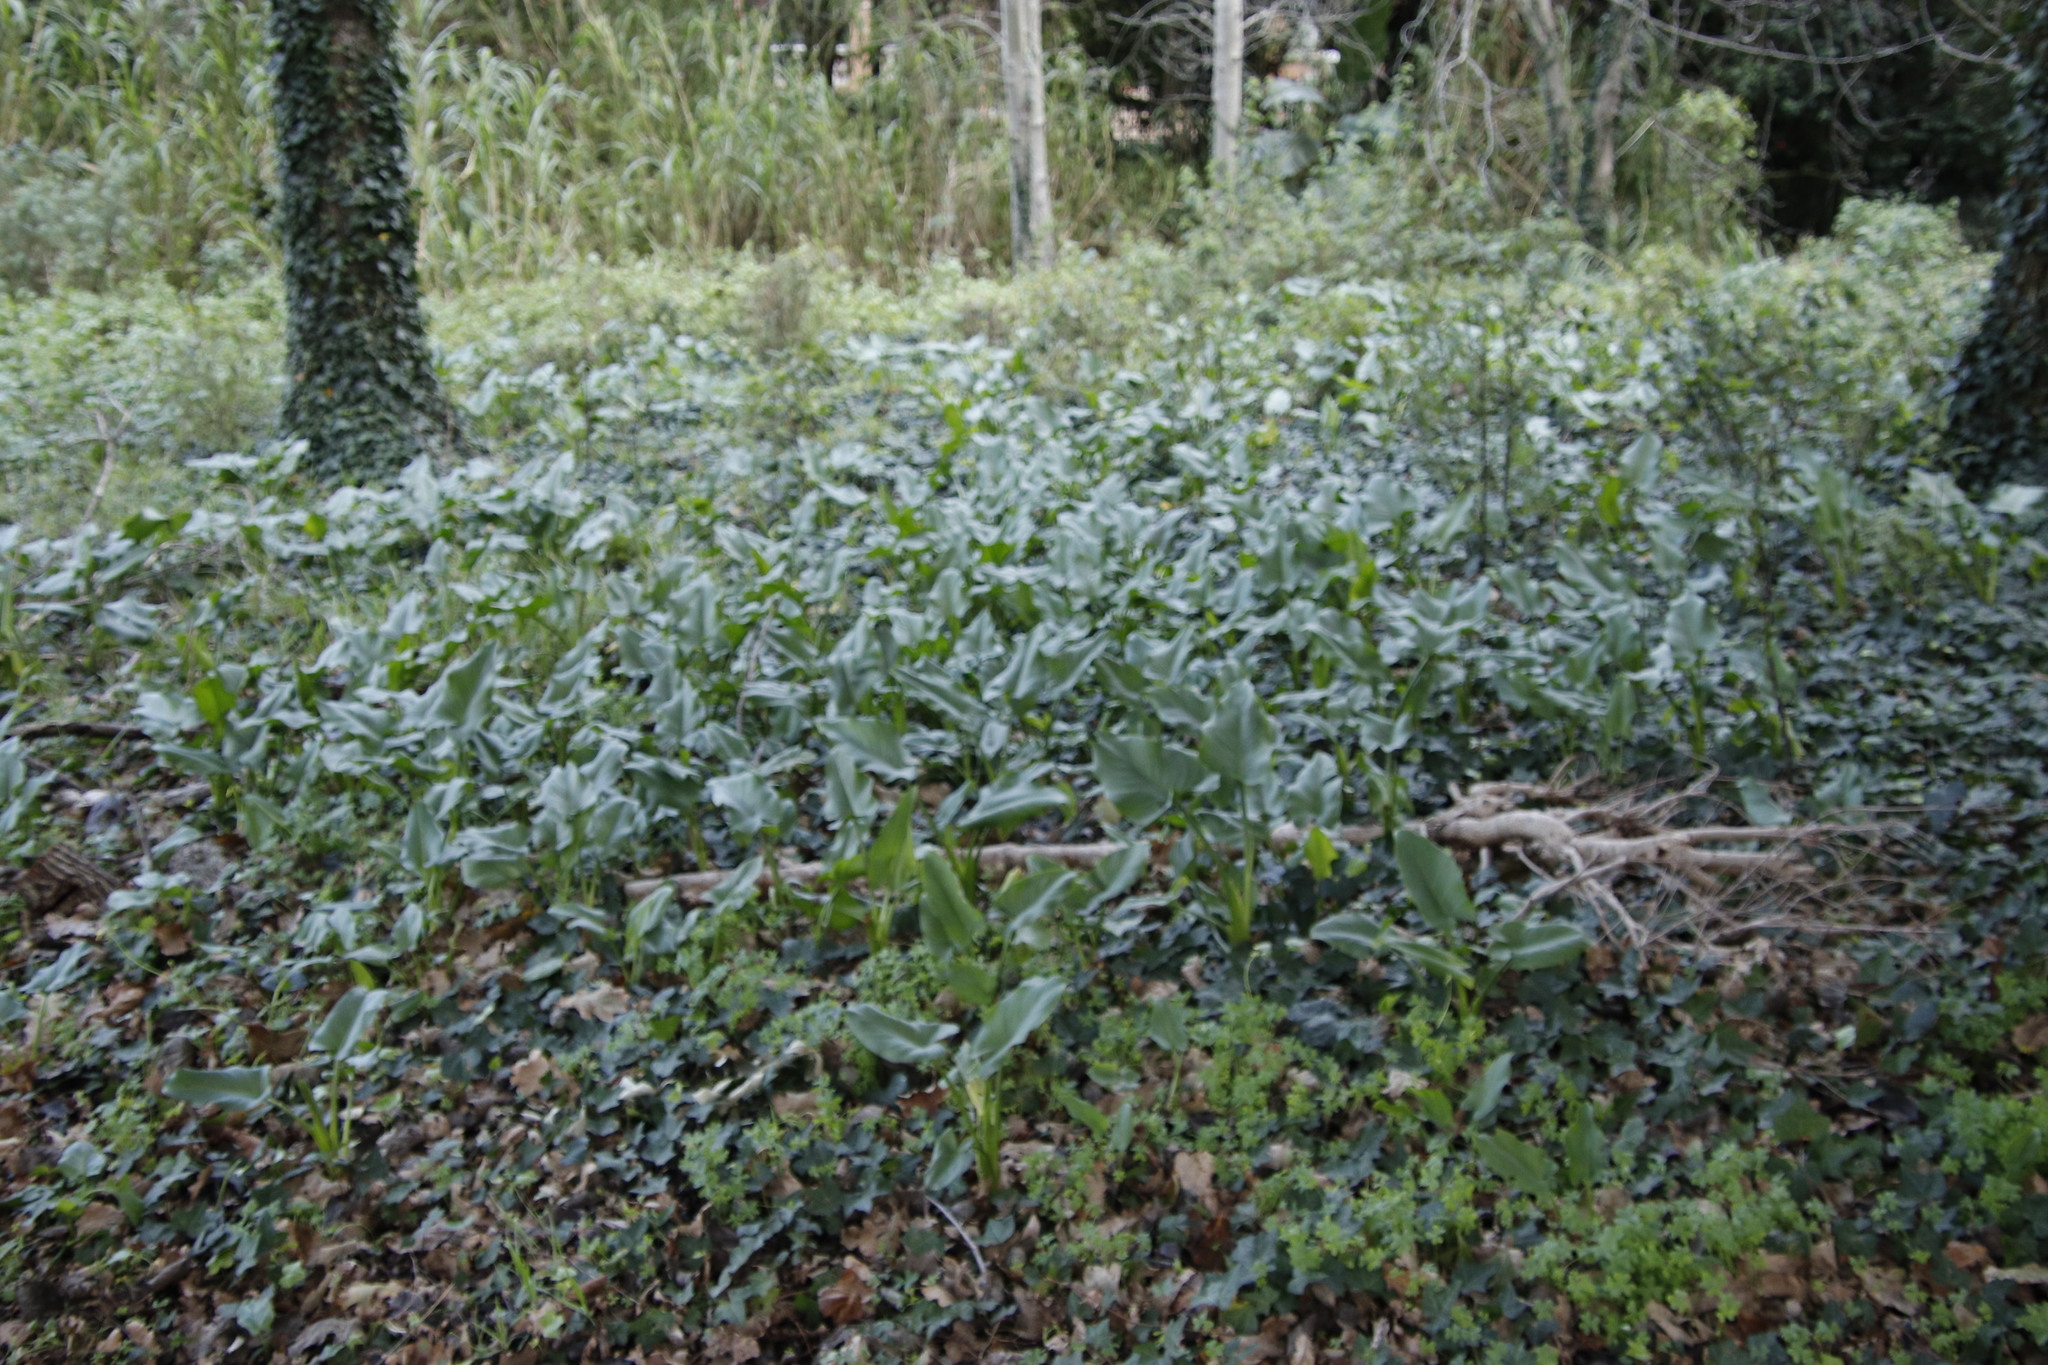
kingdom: Plantae
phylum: Tracheophyta
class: Liliopsida
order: Alismatales
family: Araceae
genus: Zantedeschia
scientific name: Zantedeschia aethiopica
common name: Altar-lily
